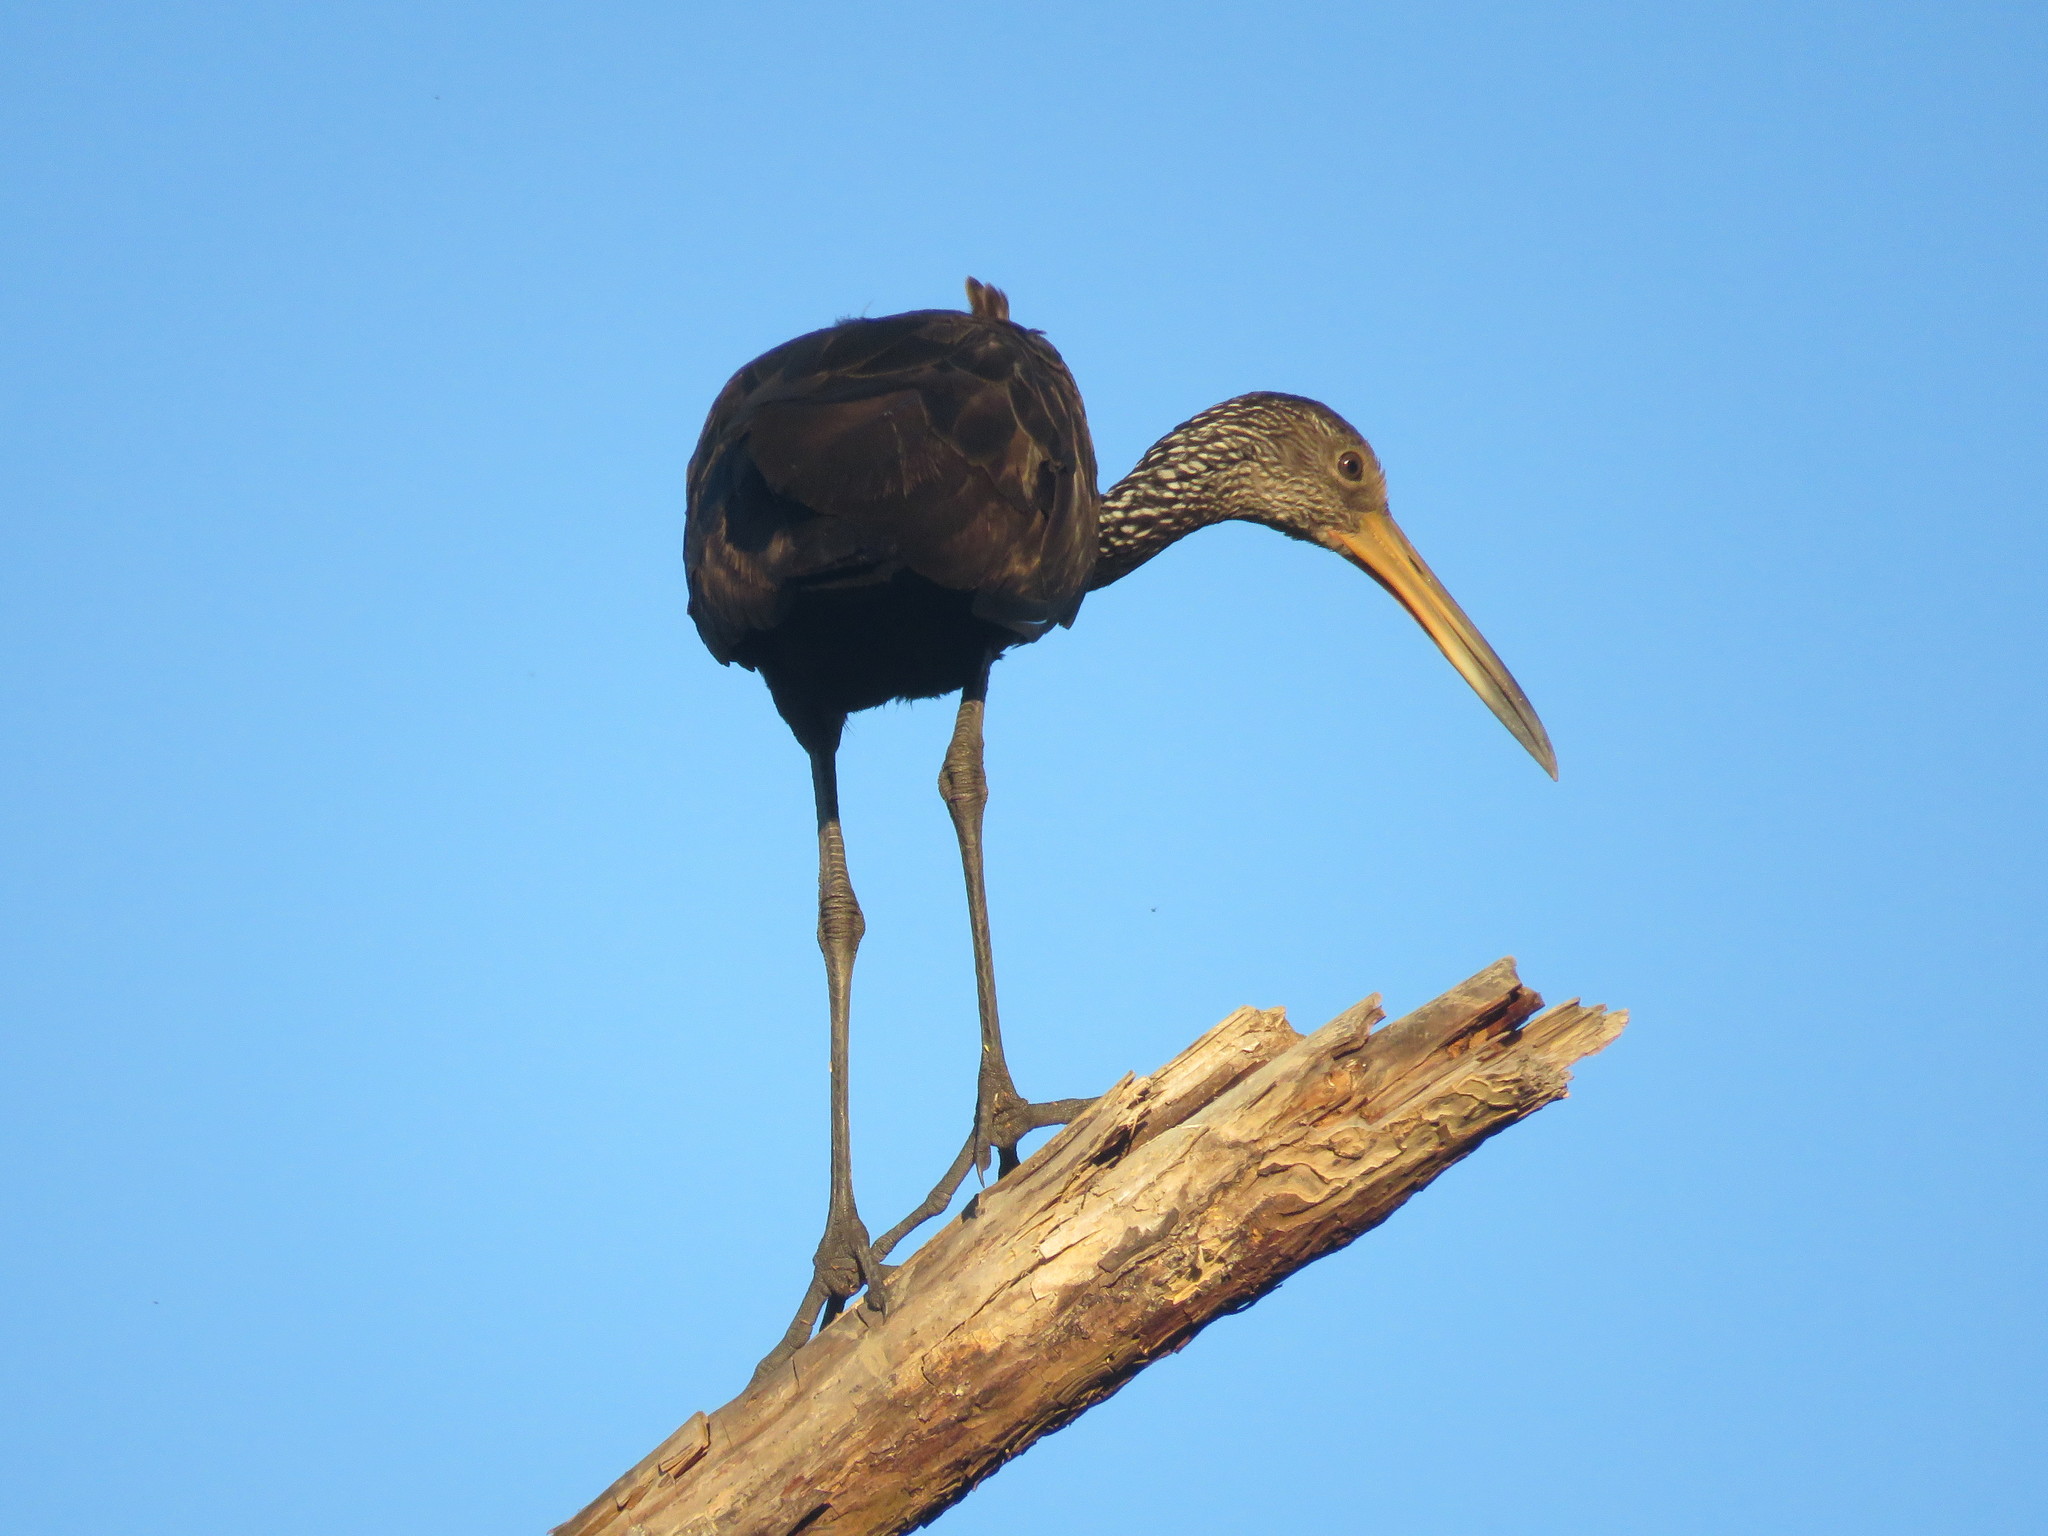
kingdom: Animalia
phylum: Chordata
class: Aves
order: Gruiformes
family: Aramidae
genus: Aramus
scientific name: Aramus guarauna
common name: Limpkin
